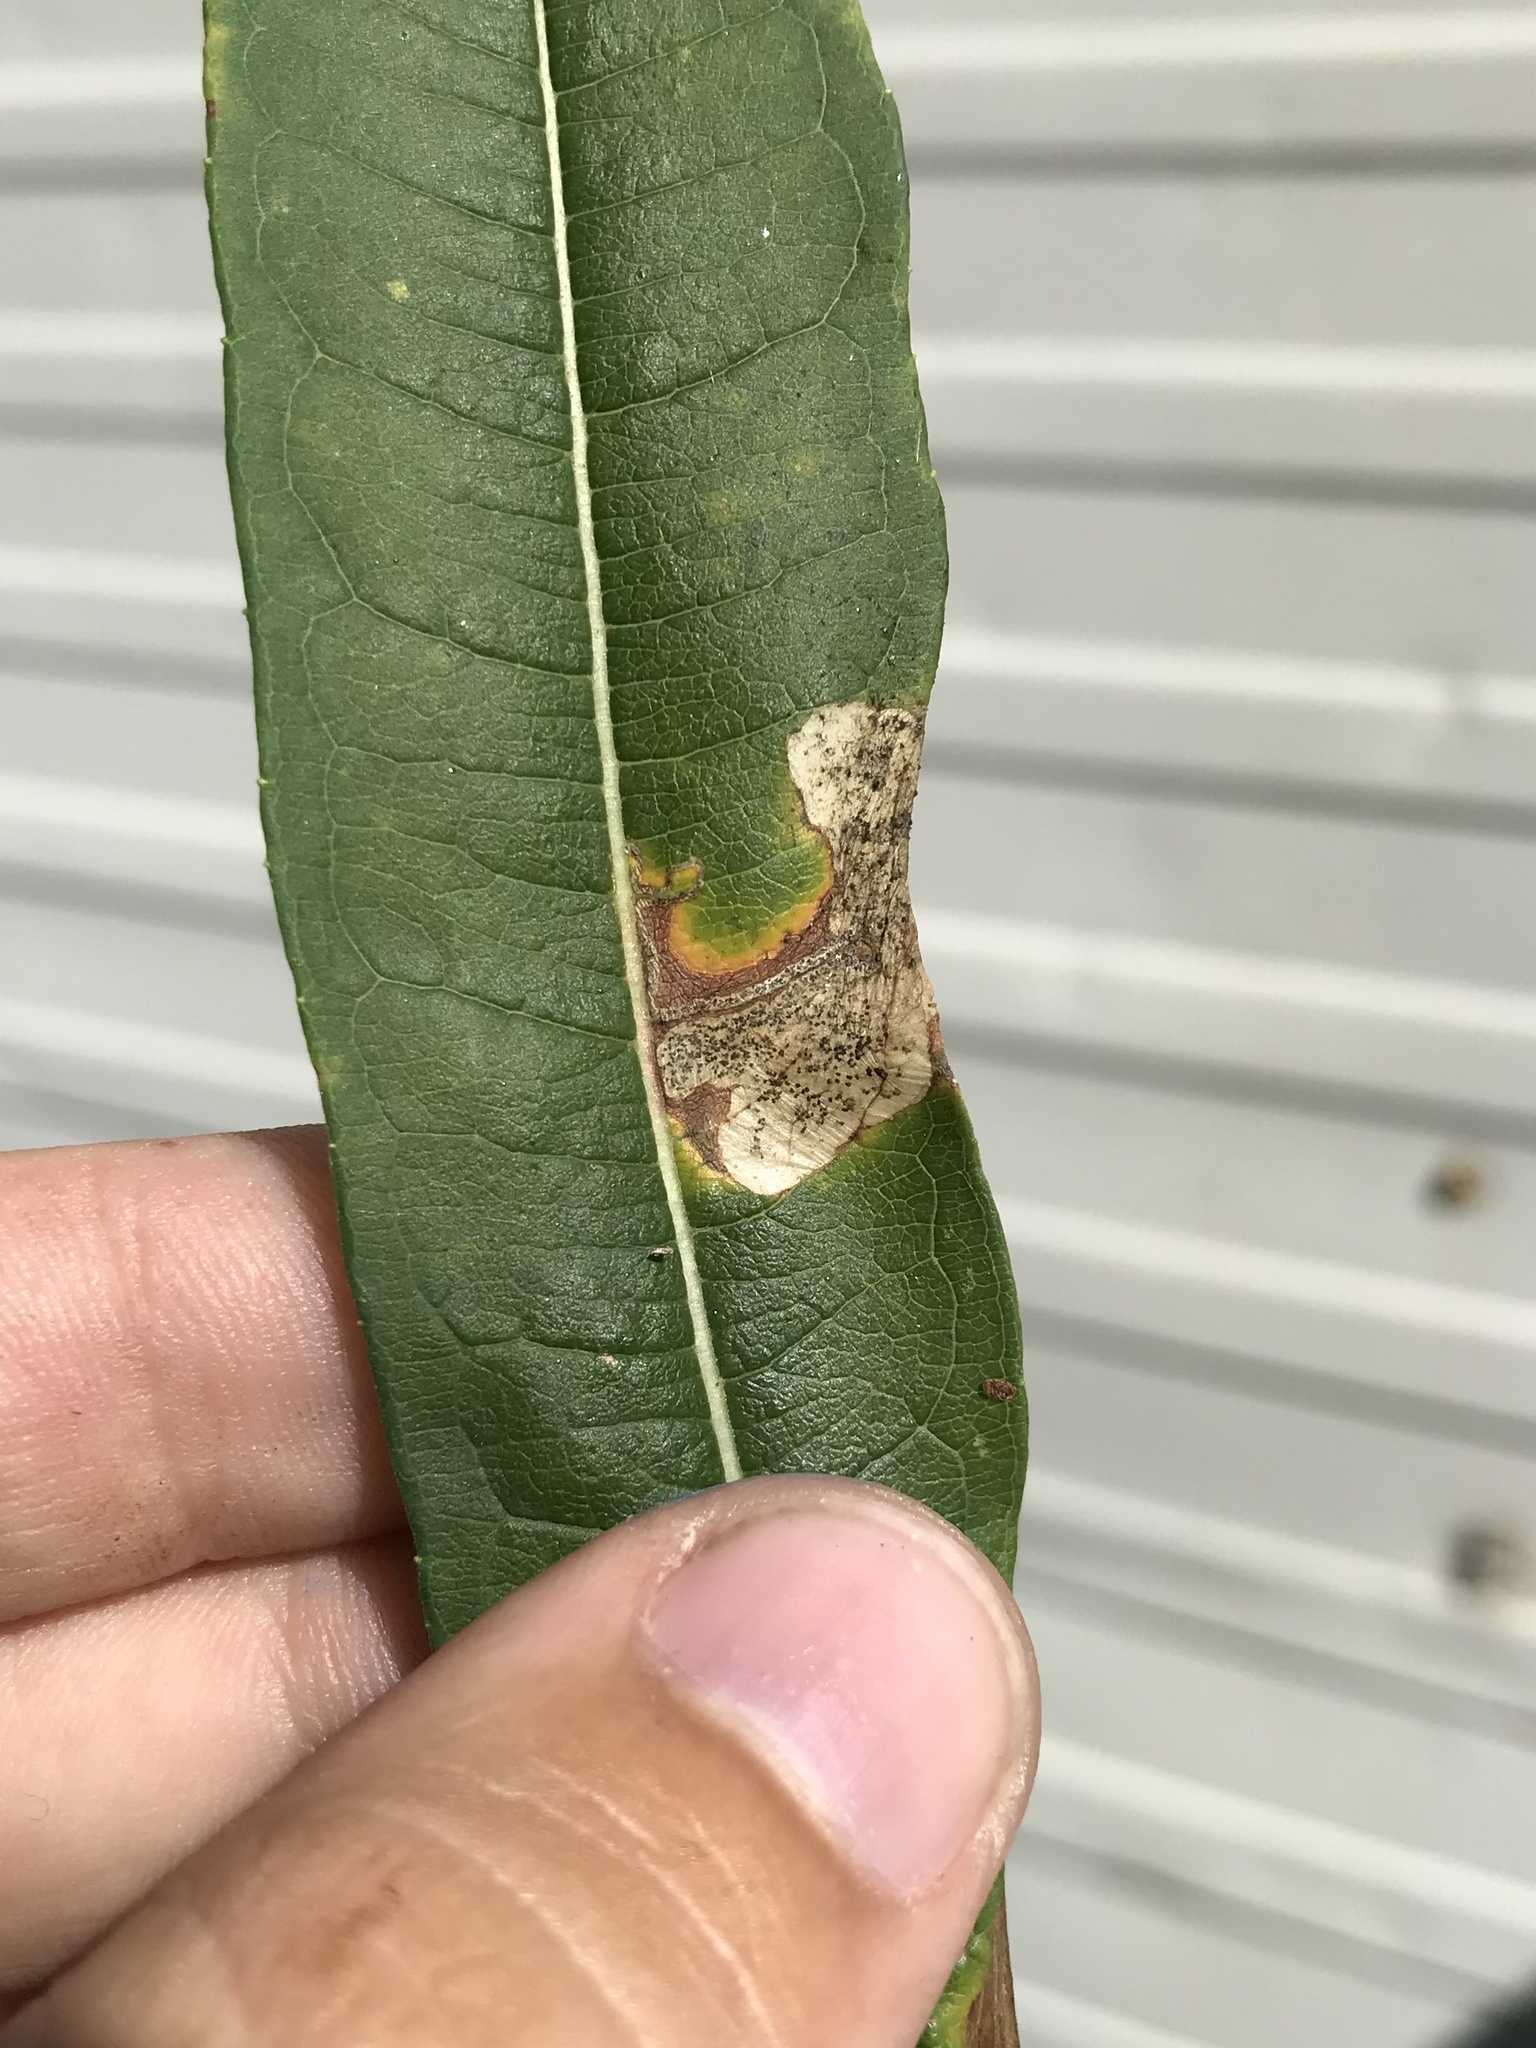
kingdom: Animalia
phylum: Arthropoda
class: Insecta
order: Lepidoptera
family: Momphidae
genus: Mompha
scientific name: Mompha raschkiella
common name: Little cosmet
